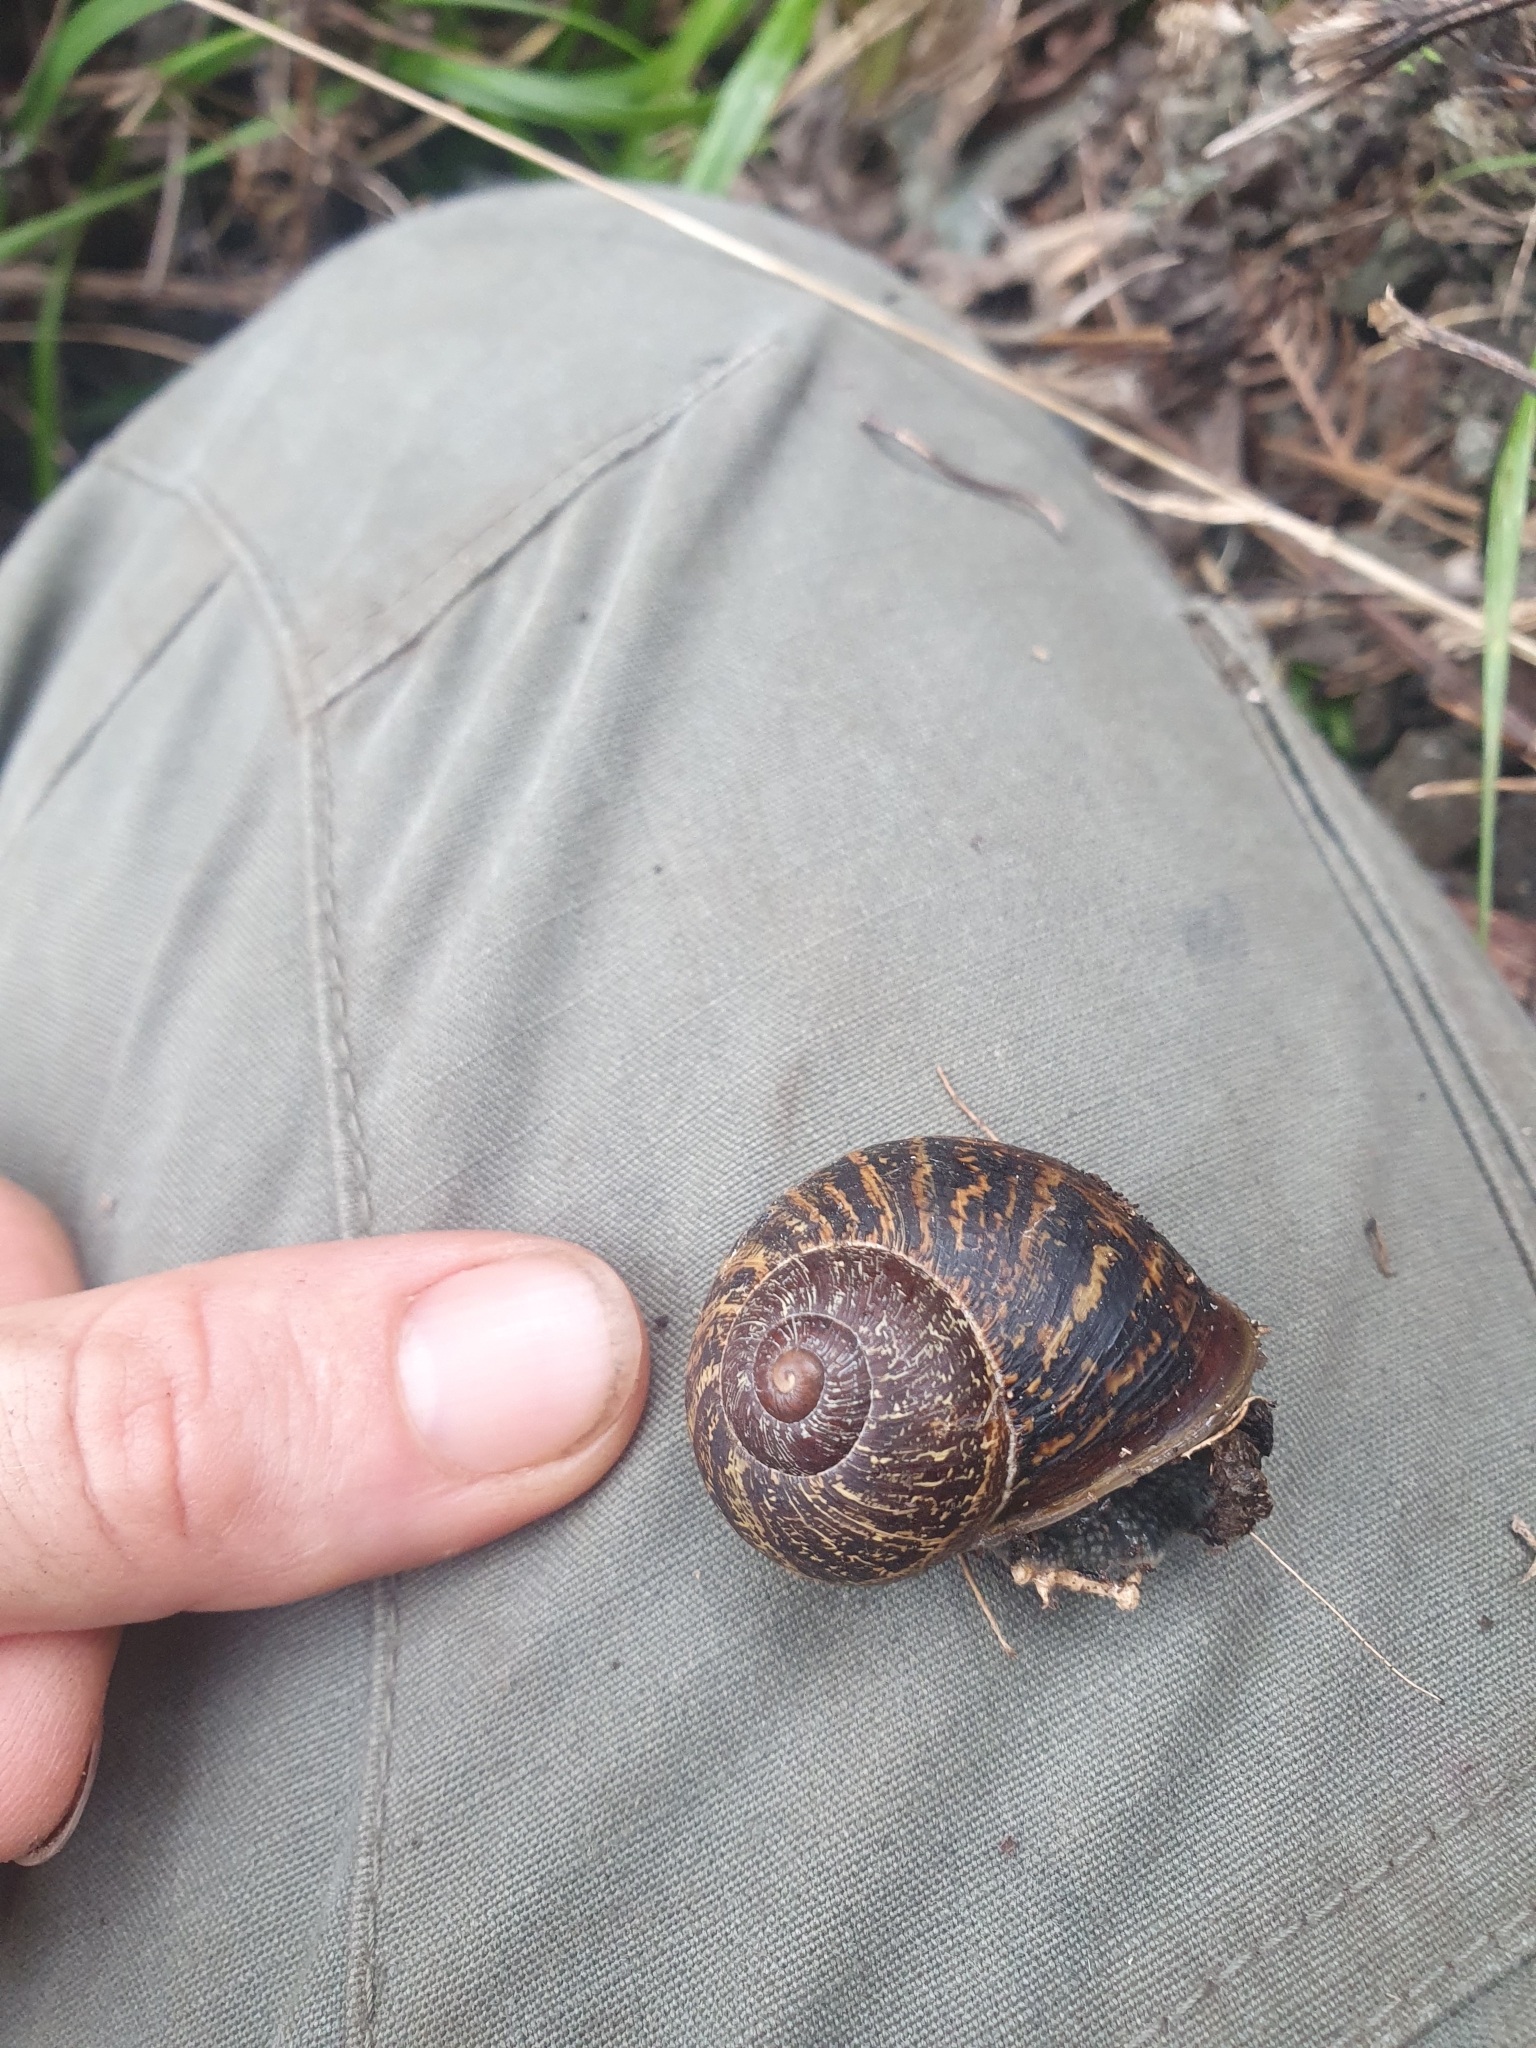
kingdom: Animalia
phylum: Mollusca
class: Gastropoda
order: Stylommatophora
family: Helicidae
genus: Cornu
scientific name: Cornu aspersum
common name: Brown garden snail
